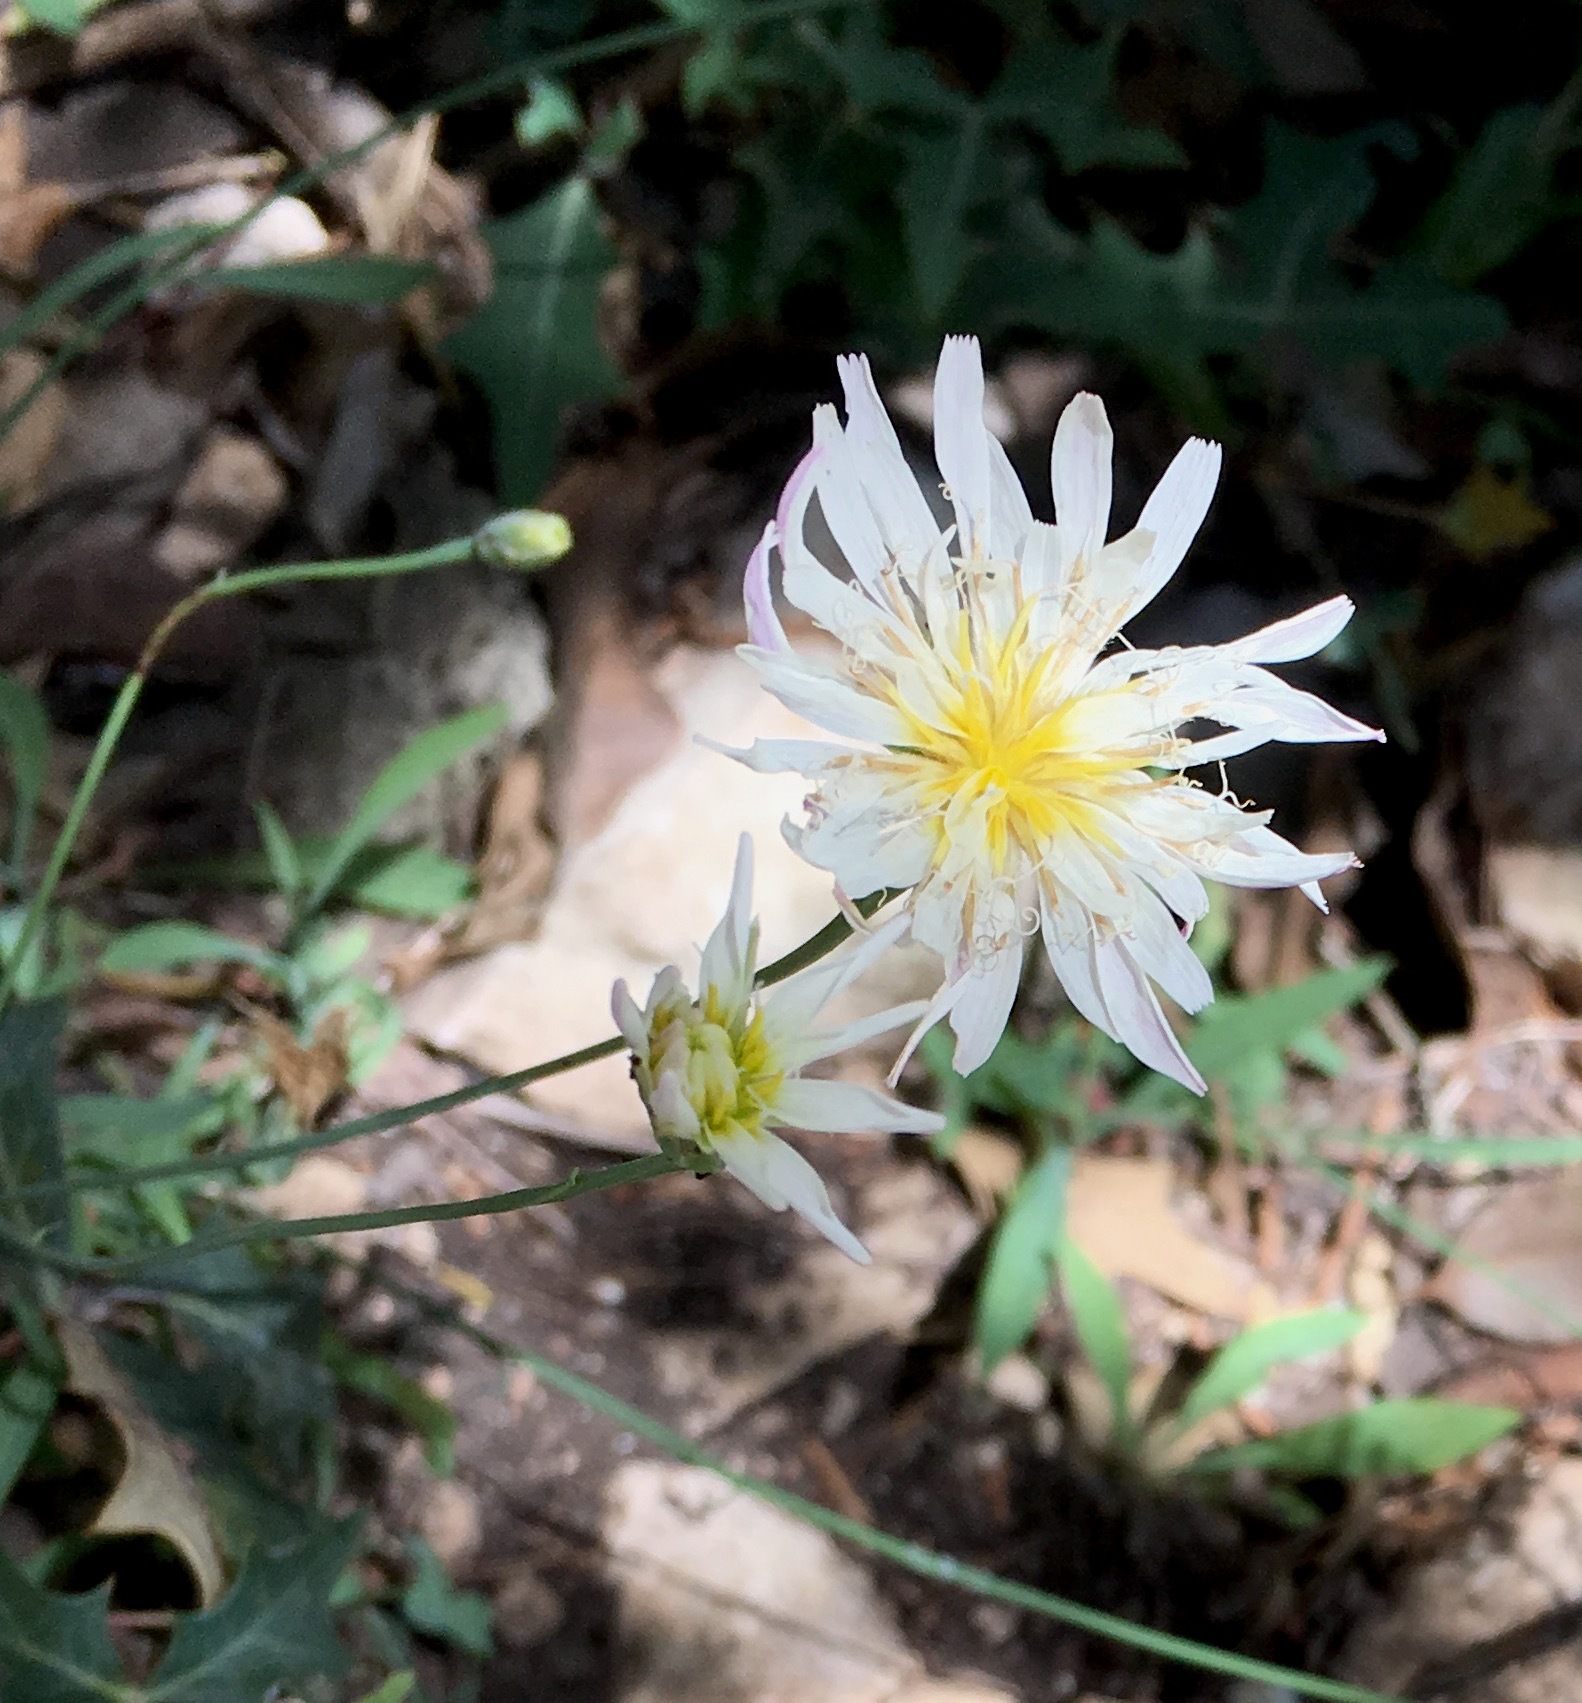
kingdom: Plantae
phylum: Tracheophyta
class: Magnoliopsida
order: Asterales
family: Asteraceae
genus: Pinaropappus
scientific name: Pinaropappus roseus
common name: Rock-lettuce
